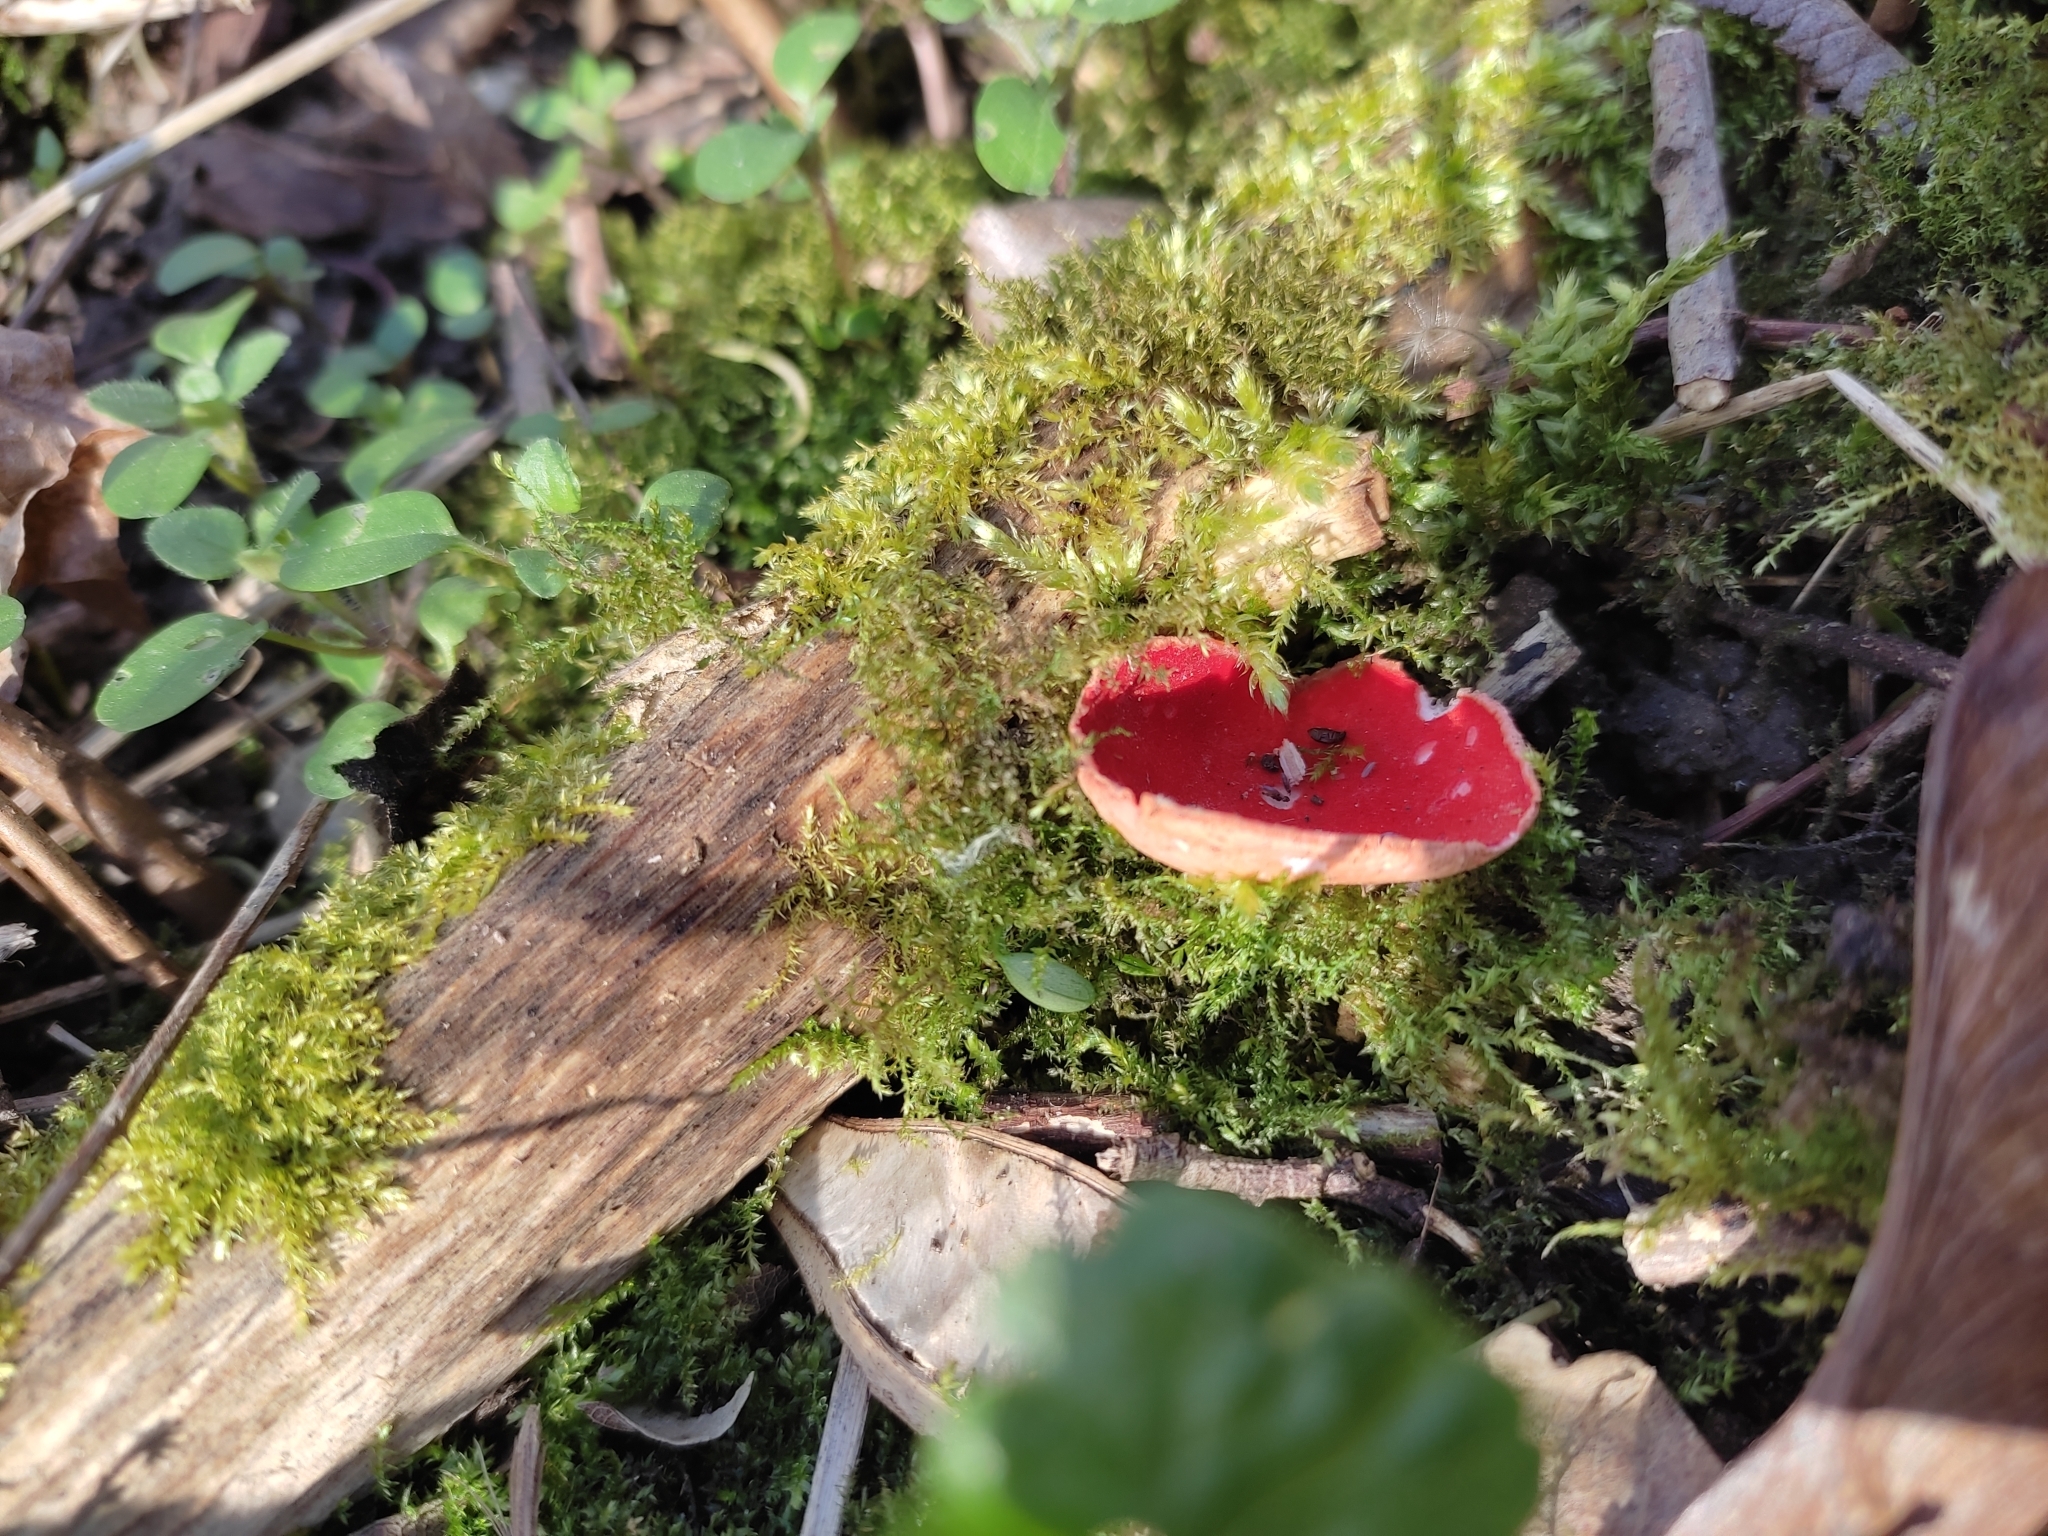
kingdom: Fungi
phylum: Ascomycota
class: Pezizomycetes
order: Pezizales
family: Sarcoscyphaceae
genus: Sarcoscypha
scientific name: Sarcoscypha
